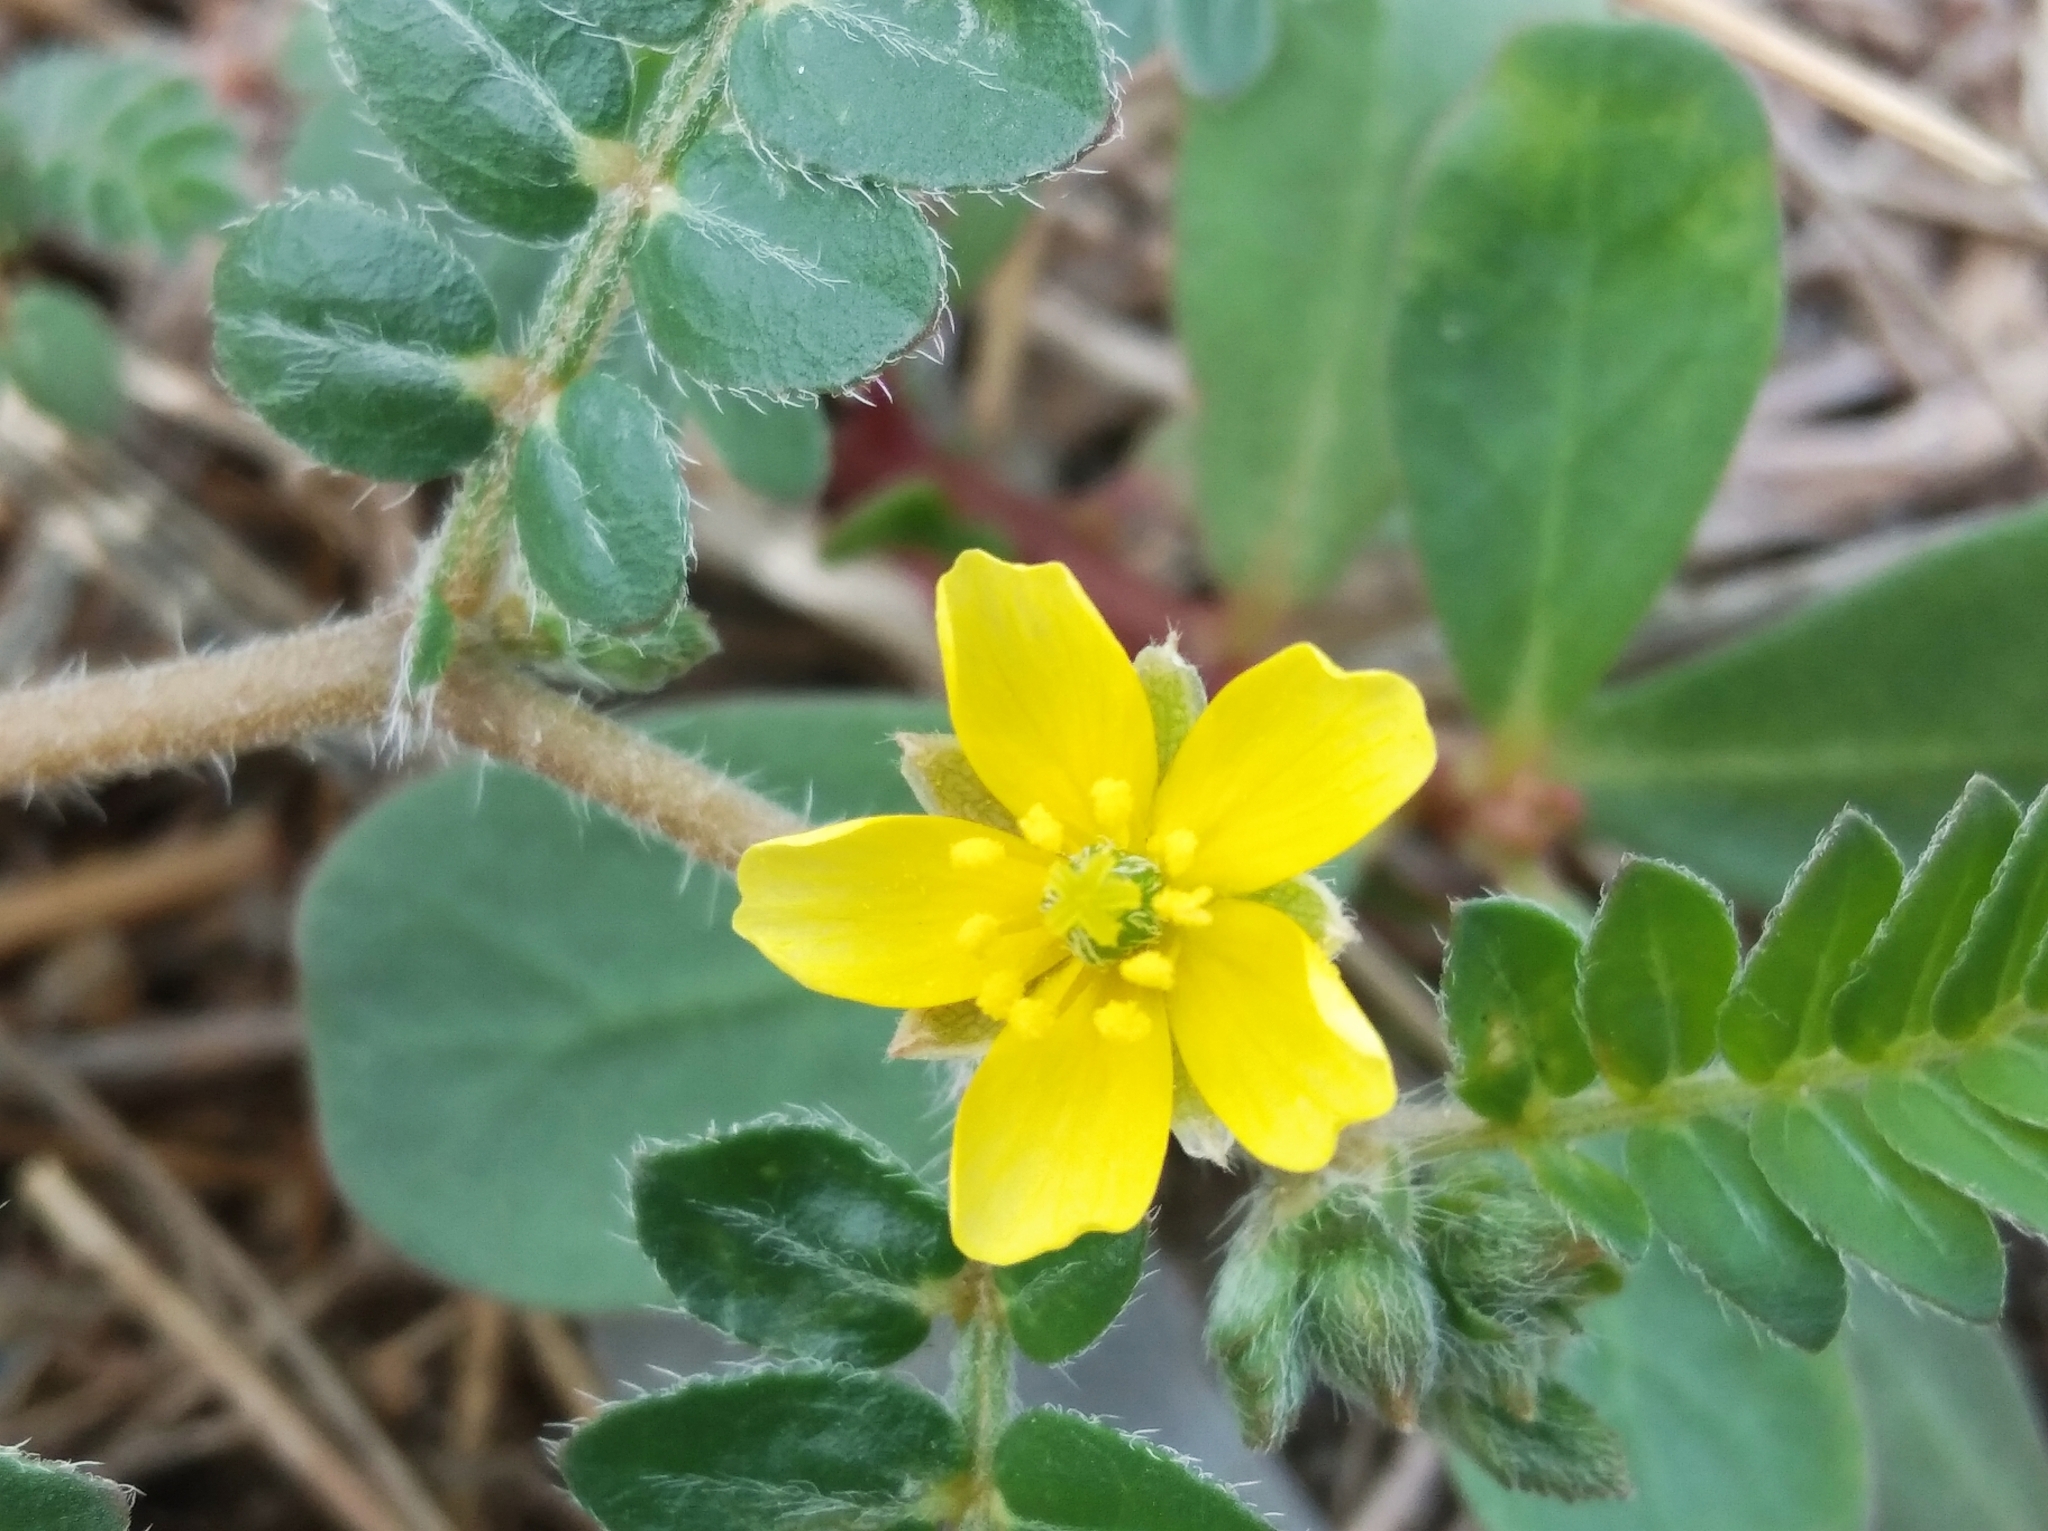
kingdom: Plantae
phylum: Tracheophyta
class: Magnoliopsida
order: Zygophyllales
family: Zygophyllaceae
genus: Tribulus
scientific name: Tribulus terrestris
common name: Puncturevine
